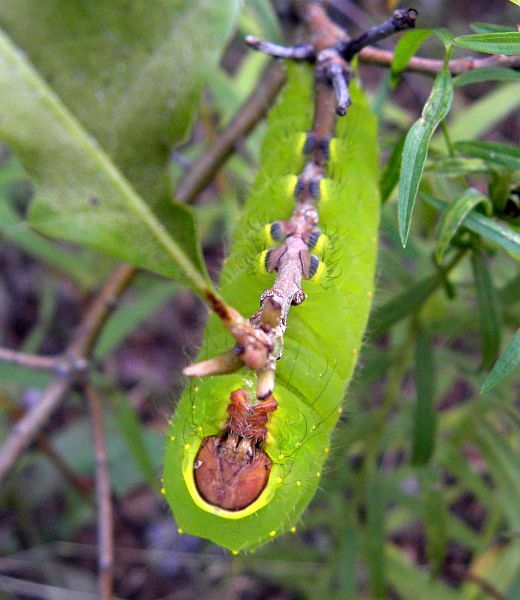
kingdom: Animalia
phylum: Arthropoda
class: Insecta
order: Lepidoptera
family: Saturniidae
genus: Antheraea
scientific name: Antheraea polyphemus
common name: Polyphemus moth
